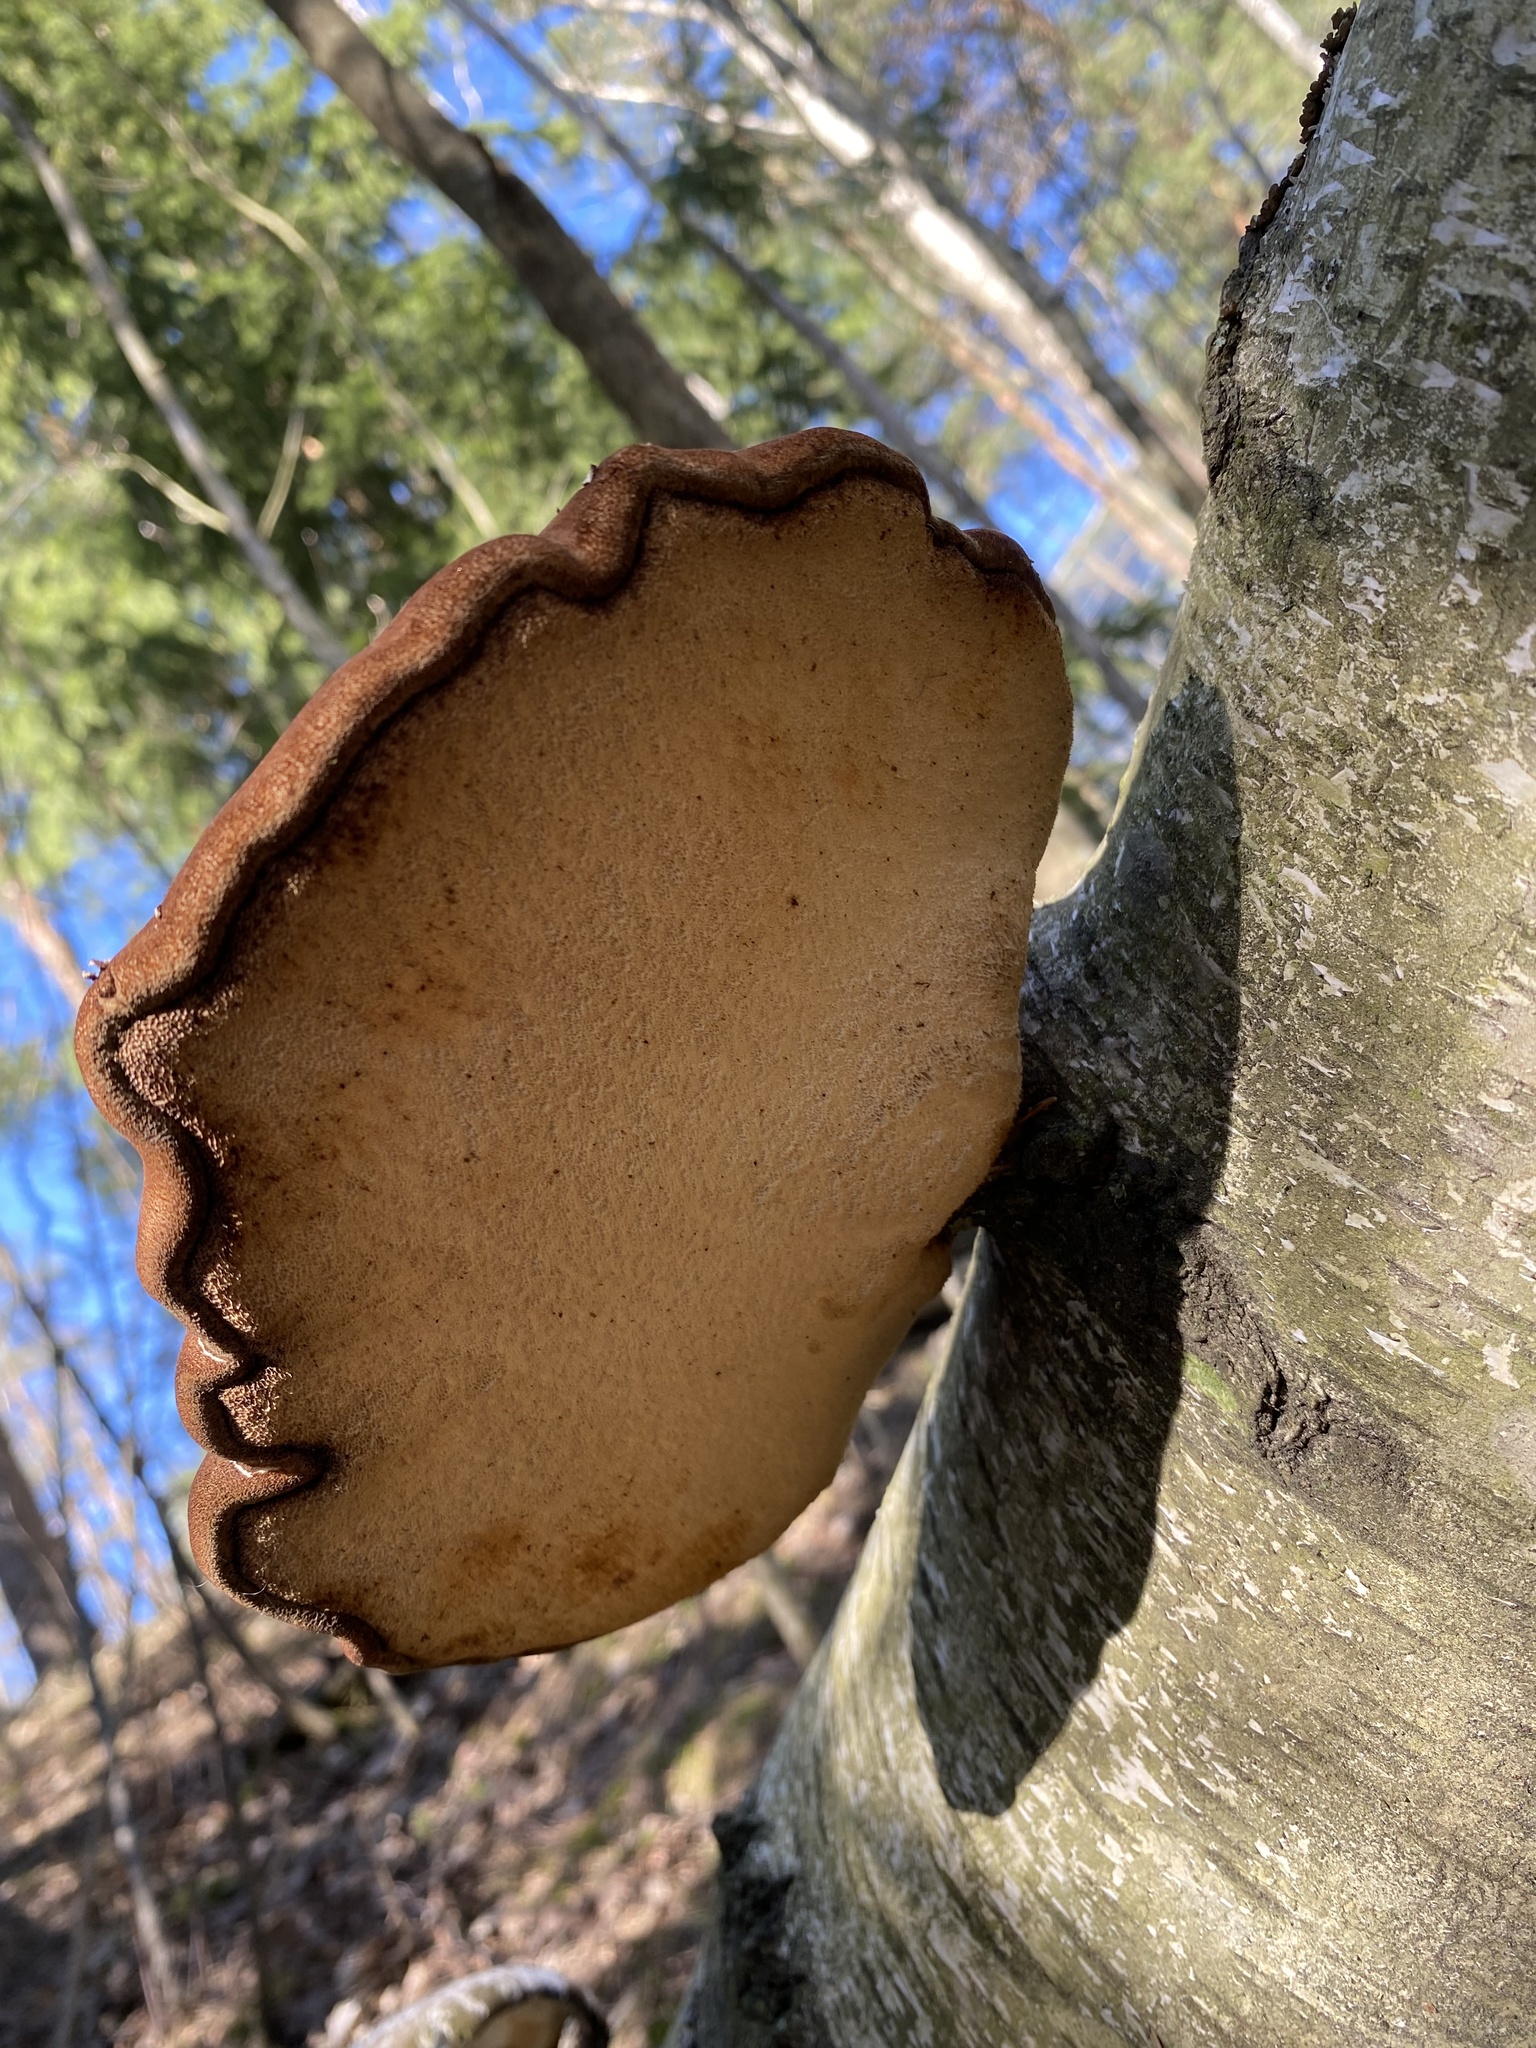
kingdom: Fungi
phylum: Basidiomycota
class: Agaricomycetes
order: Polyporales
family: Fomitopsidaceae
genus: Fomitopsis
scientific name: Fomitopsis betulina
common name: Birch polypore
